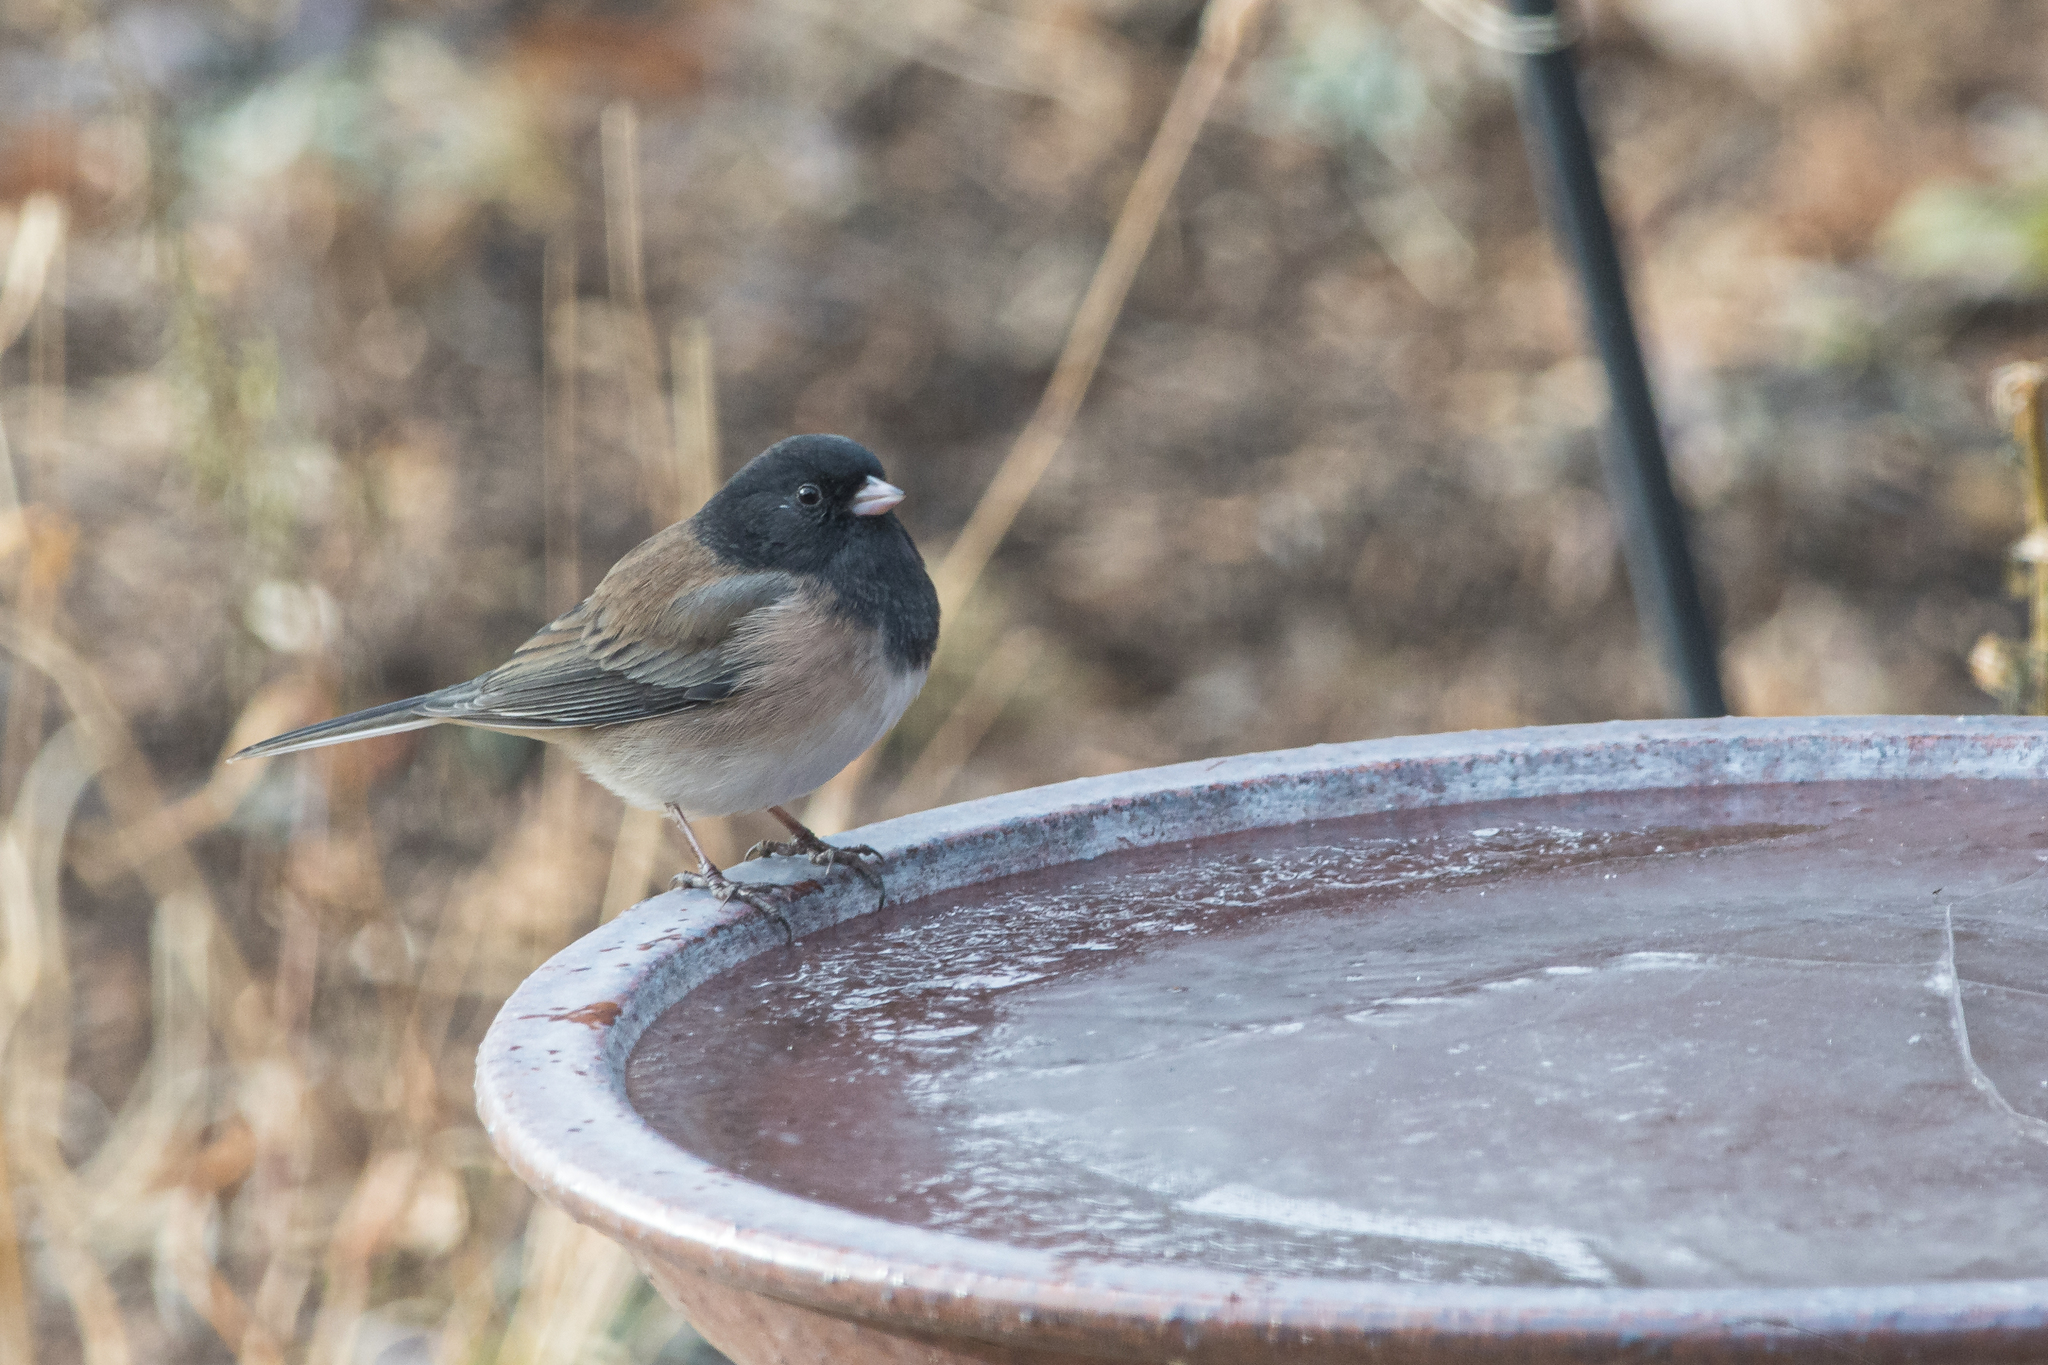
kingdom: Animalia
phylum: Chordata
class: Aves
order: Passeriformes
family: Passerellidae
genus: Junco
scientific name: Junco hyemalis
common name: Dark-eyed junco
